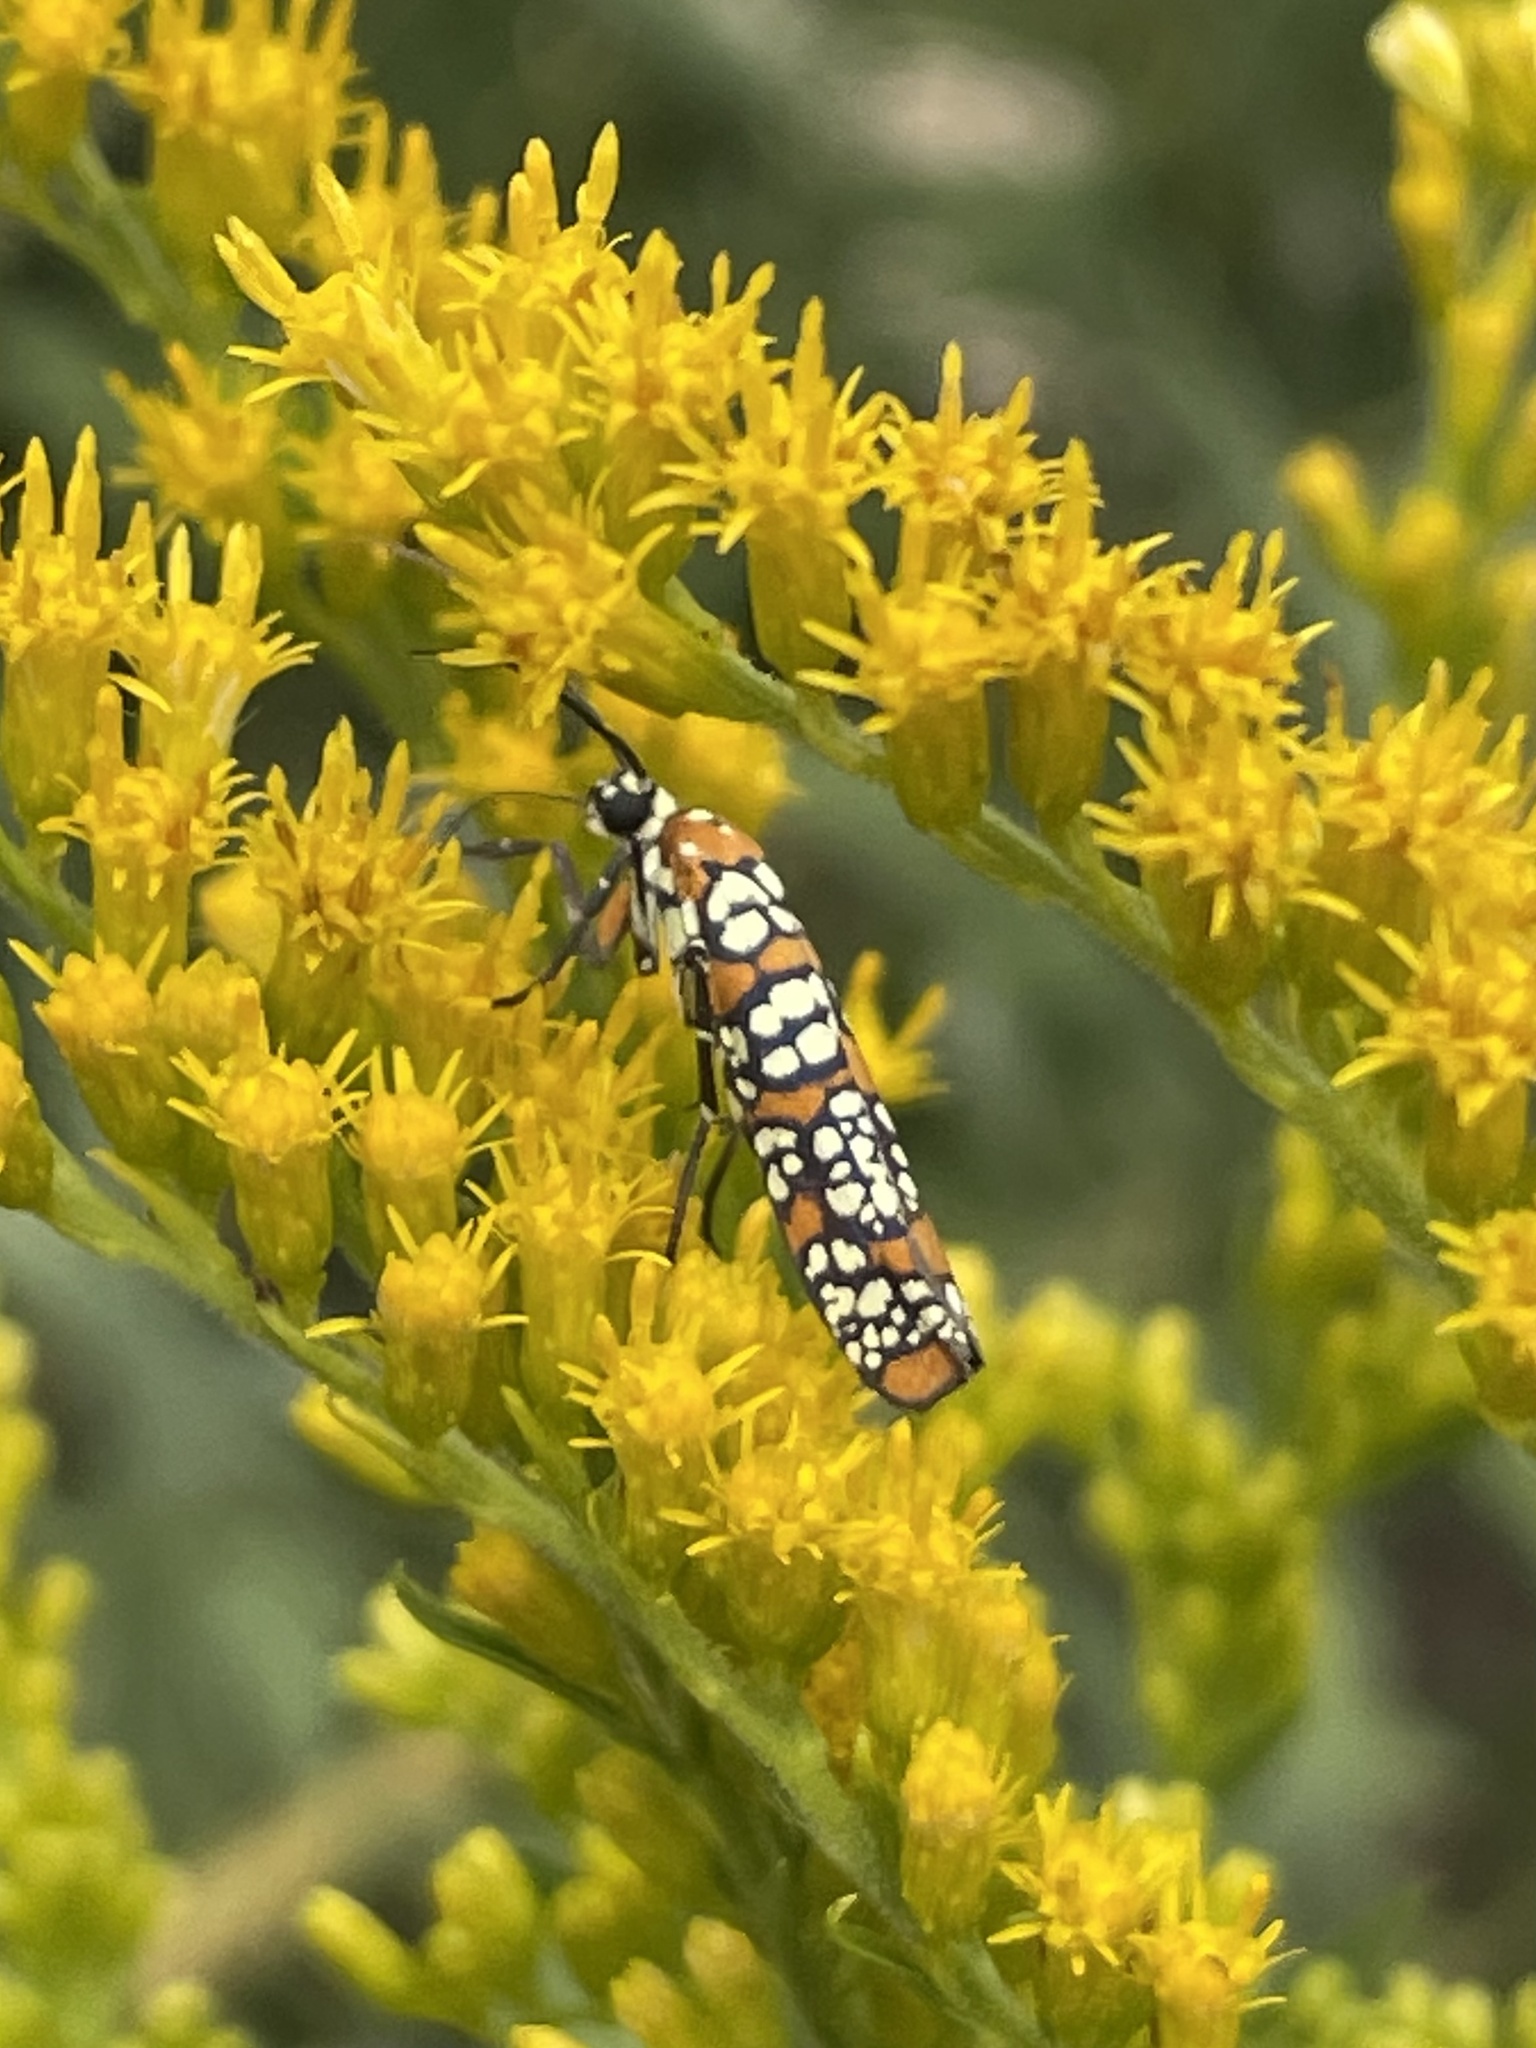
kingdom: Animalia
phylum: Arthropoda
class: Insecta
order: Lepidoptera
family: Attevidae
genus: Atteva
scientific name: Atteva punctella
